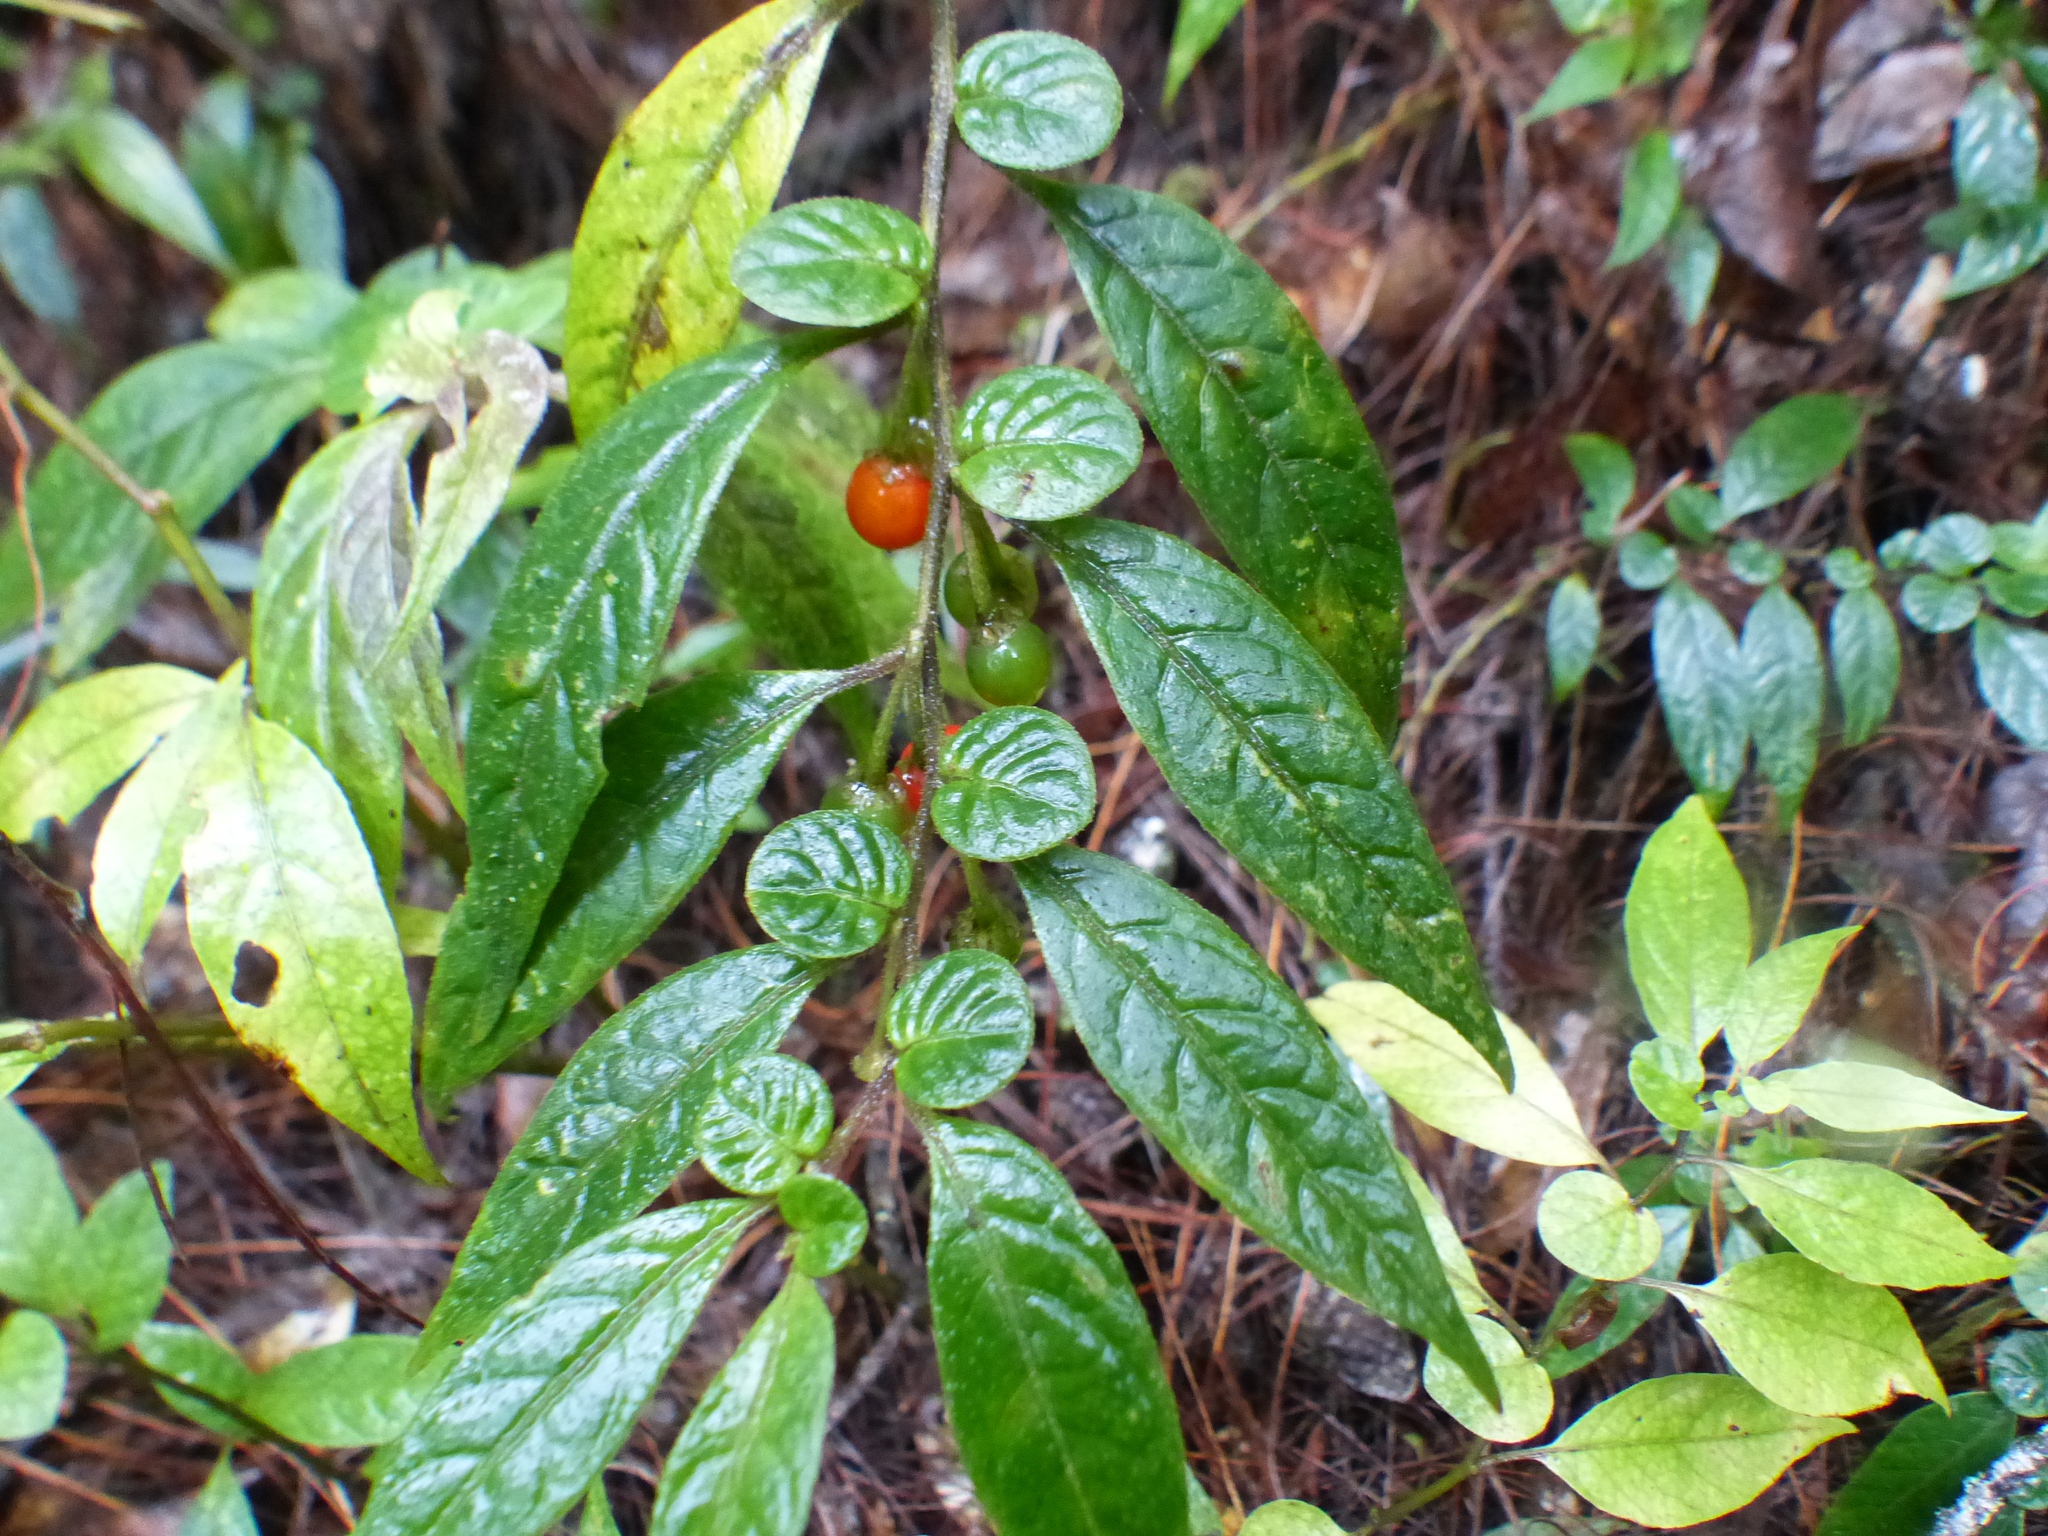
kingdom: Plantae
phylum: Tracheophyta
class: Magnoliopsida
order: Solanales
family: Solanaceae
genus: Capsicum
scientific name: Capsicum dimorphum
